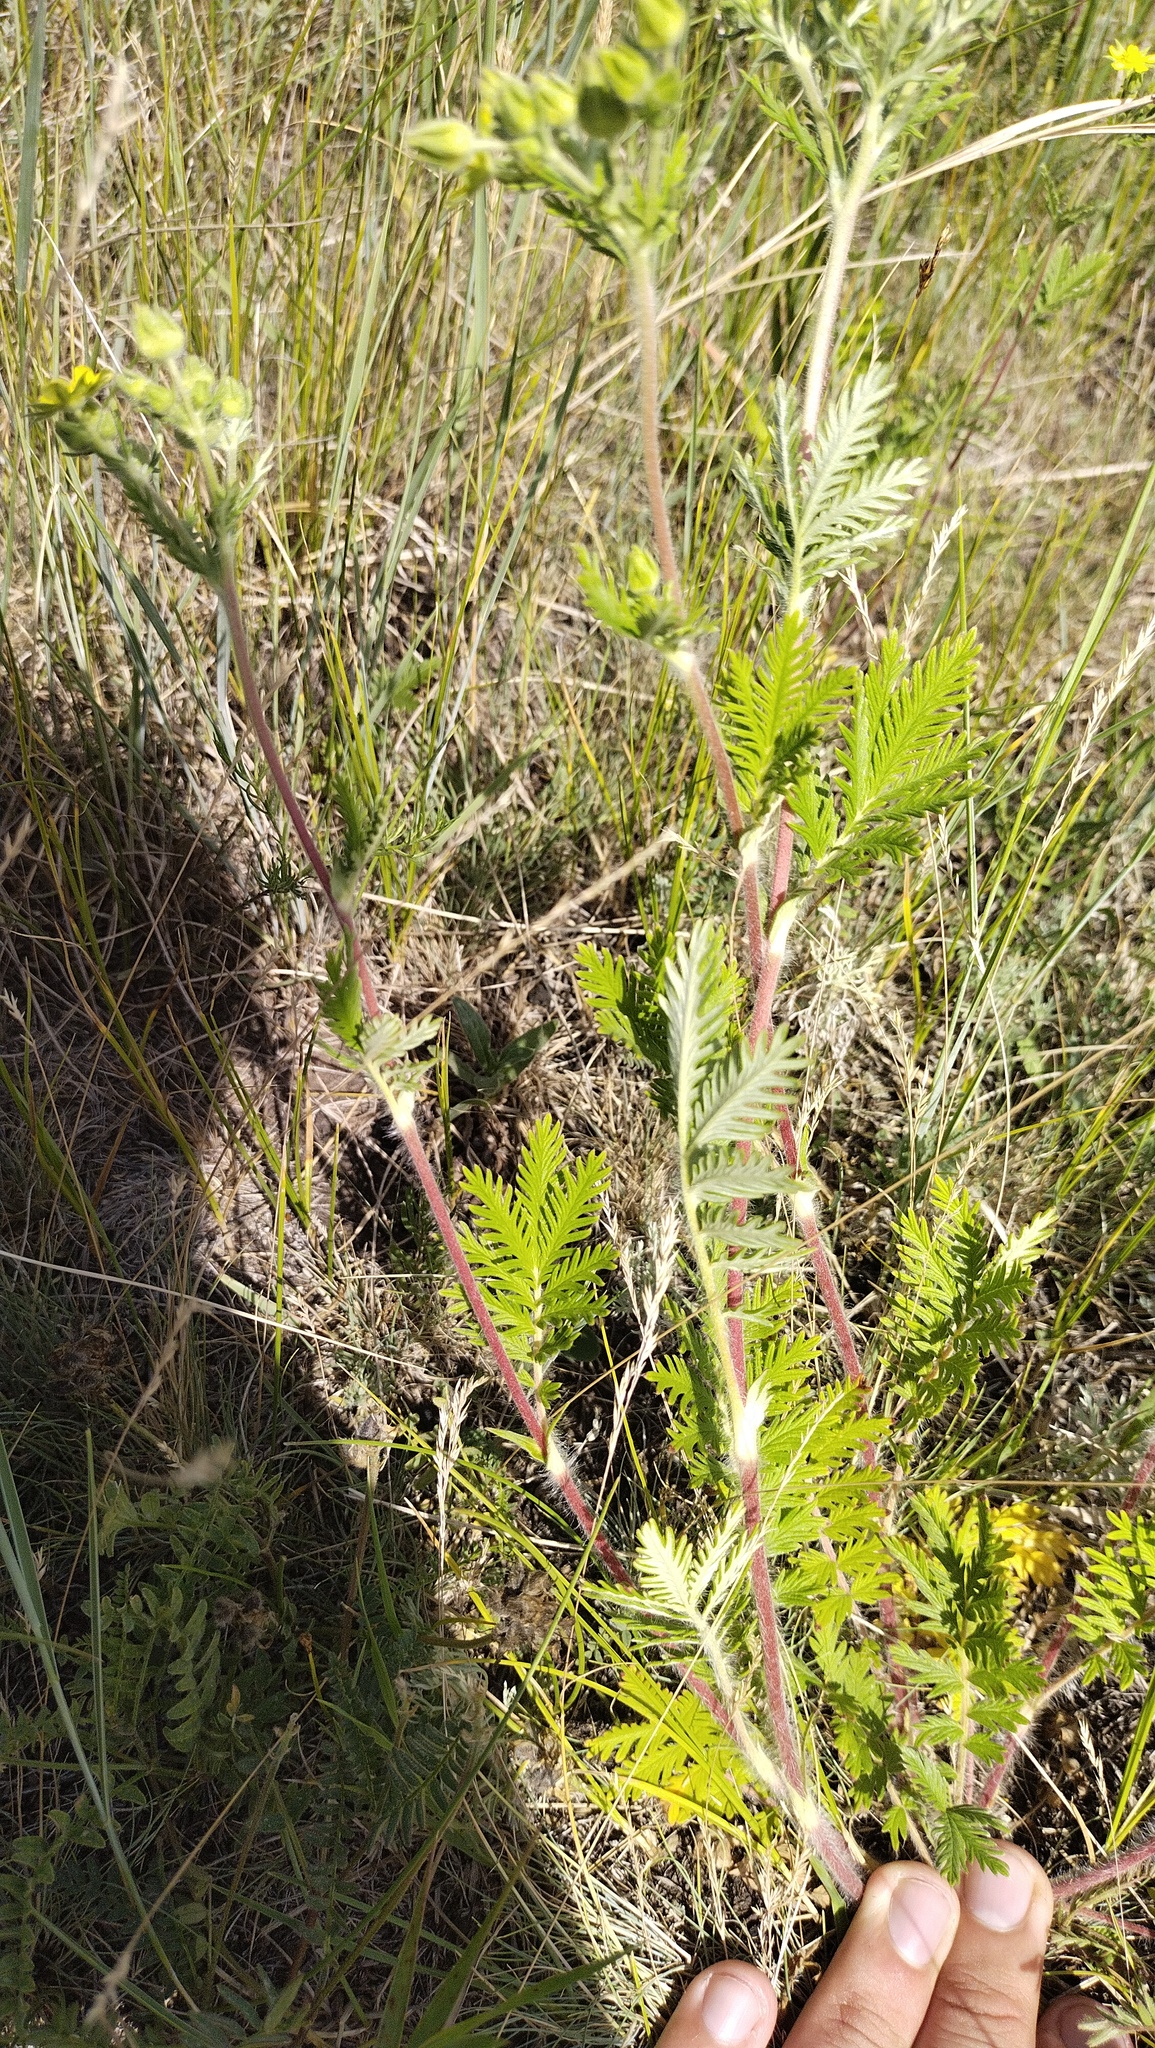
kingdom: Plantae
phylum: Tracheophyta
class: Magnoliopsida
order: Rosales
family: Rosaceae
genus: Potentilla
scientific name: Potentilla conferta
